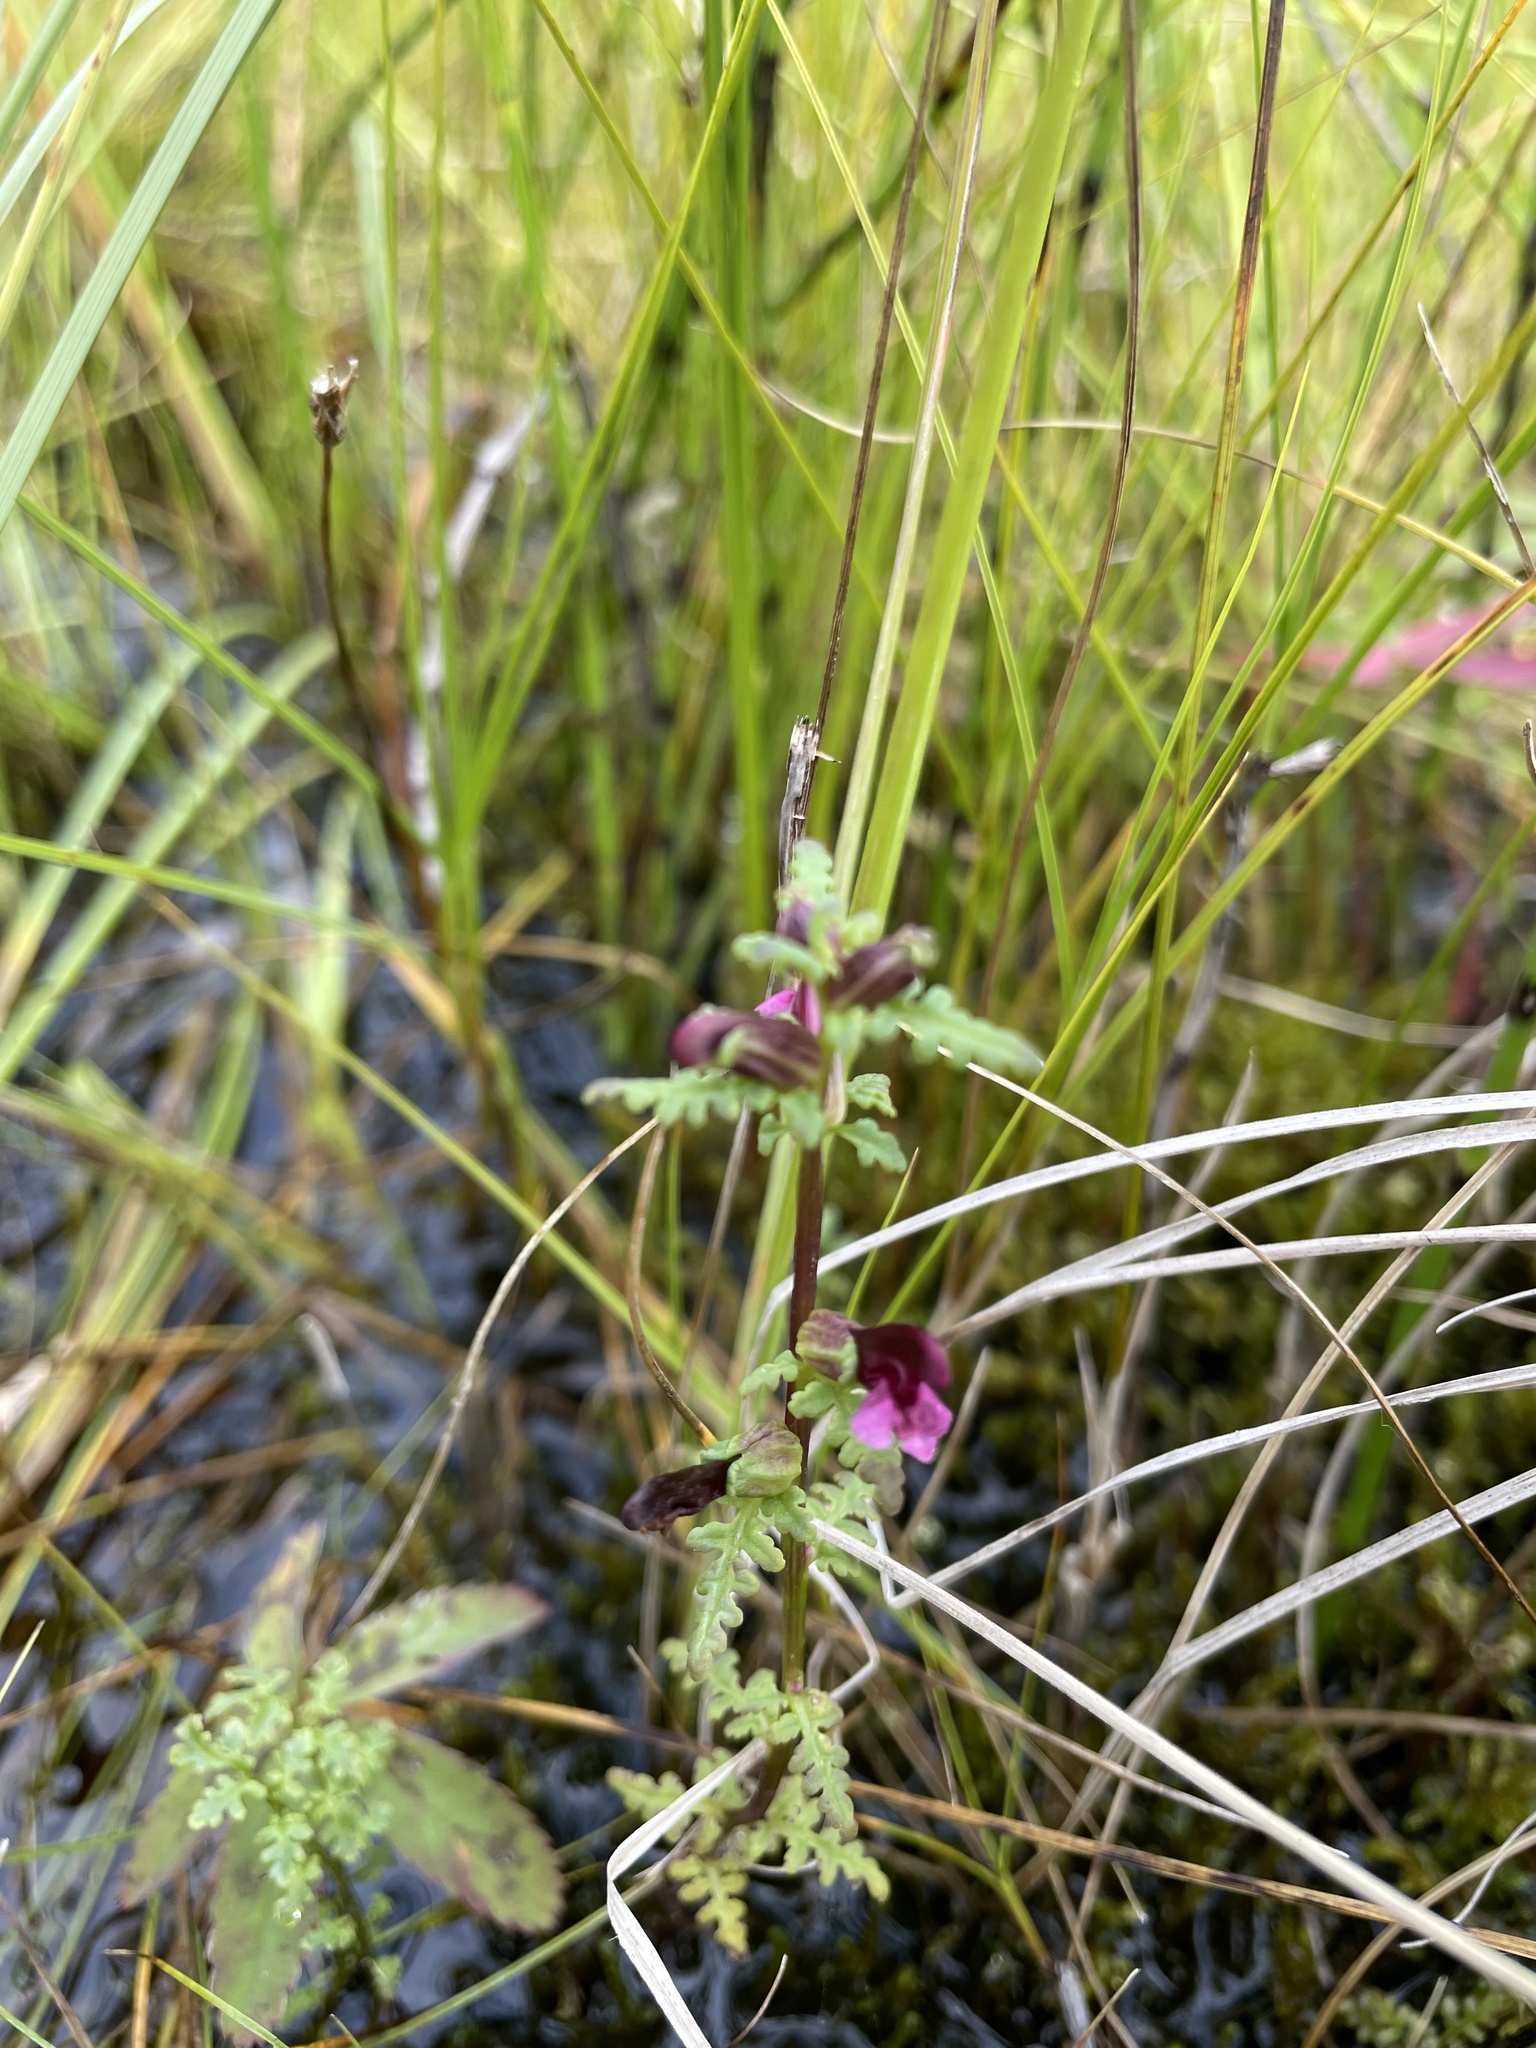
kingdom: Plantae
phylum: Tracheophyta
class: Magnoliopsida
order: Lamiales
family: Orobanchaceae
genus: Pedicularis
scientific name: Pedicularis parviflora
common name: Muskeg lousewort
